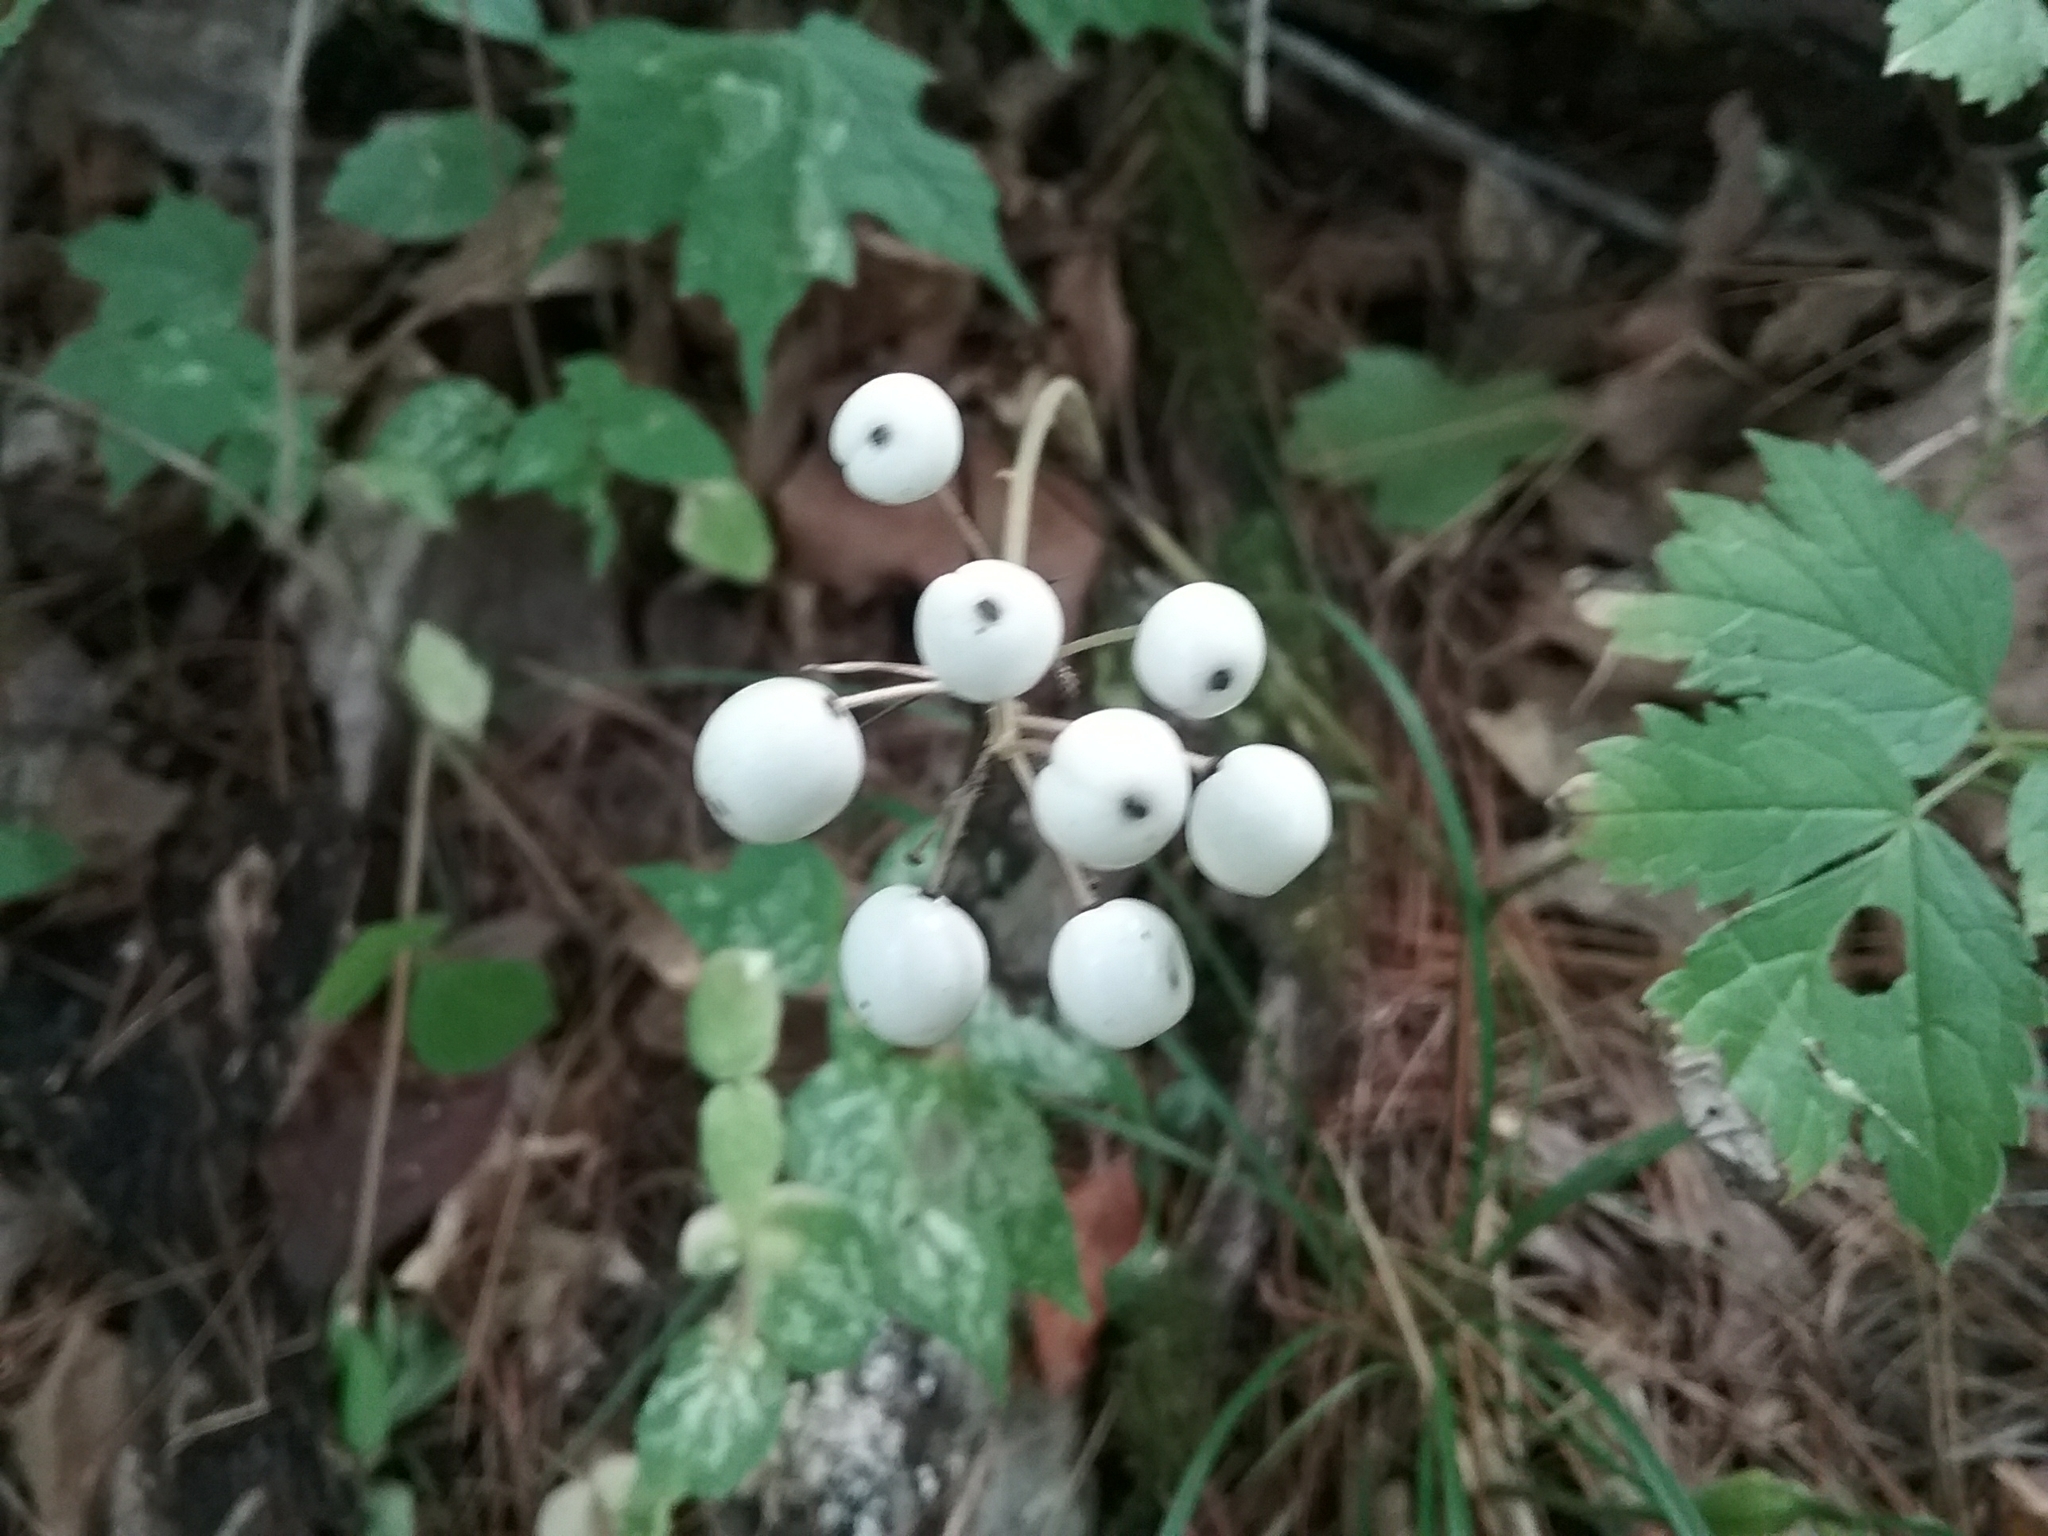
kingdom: Plantae
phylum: Tracheophyta
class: Magnoliopsida
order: Ranunculales
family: Ranunculaceae
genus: Actaea
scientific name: Actaea rubra
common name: Red baneberry
